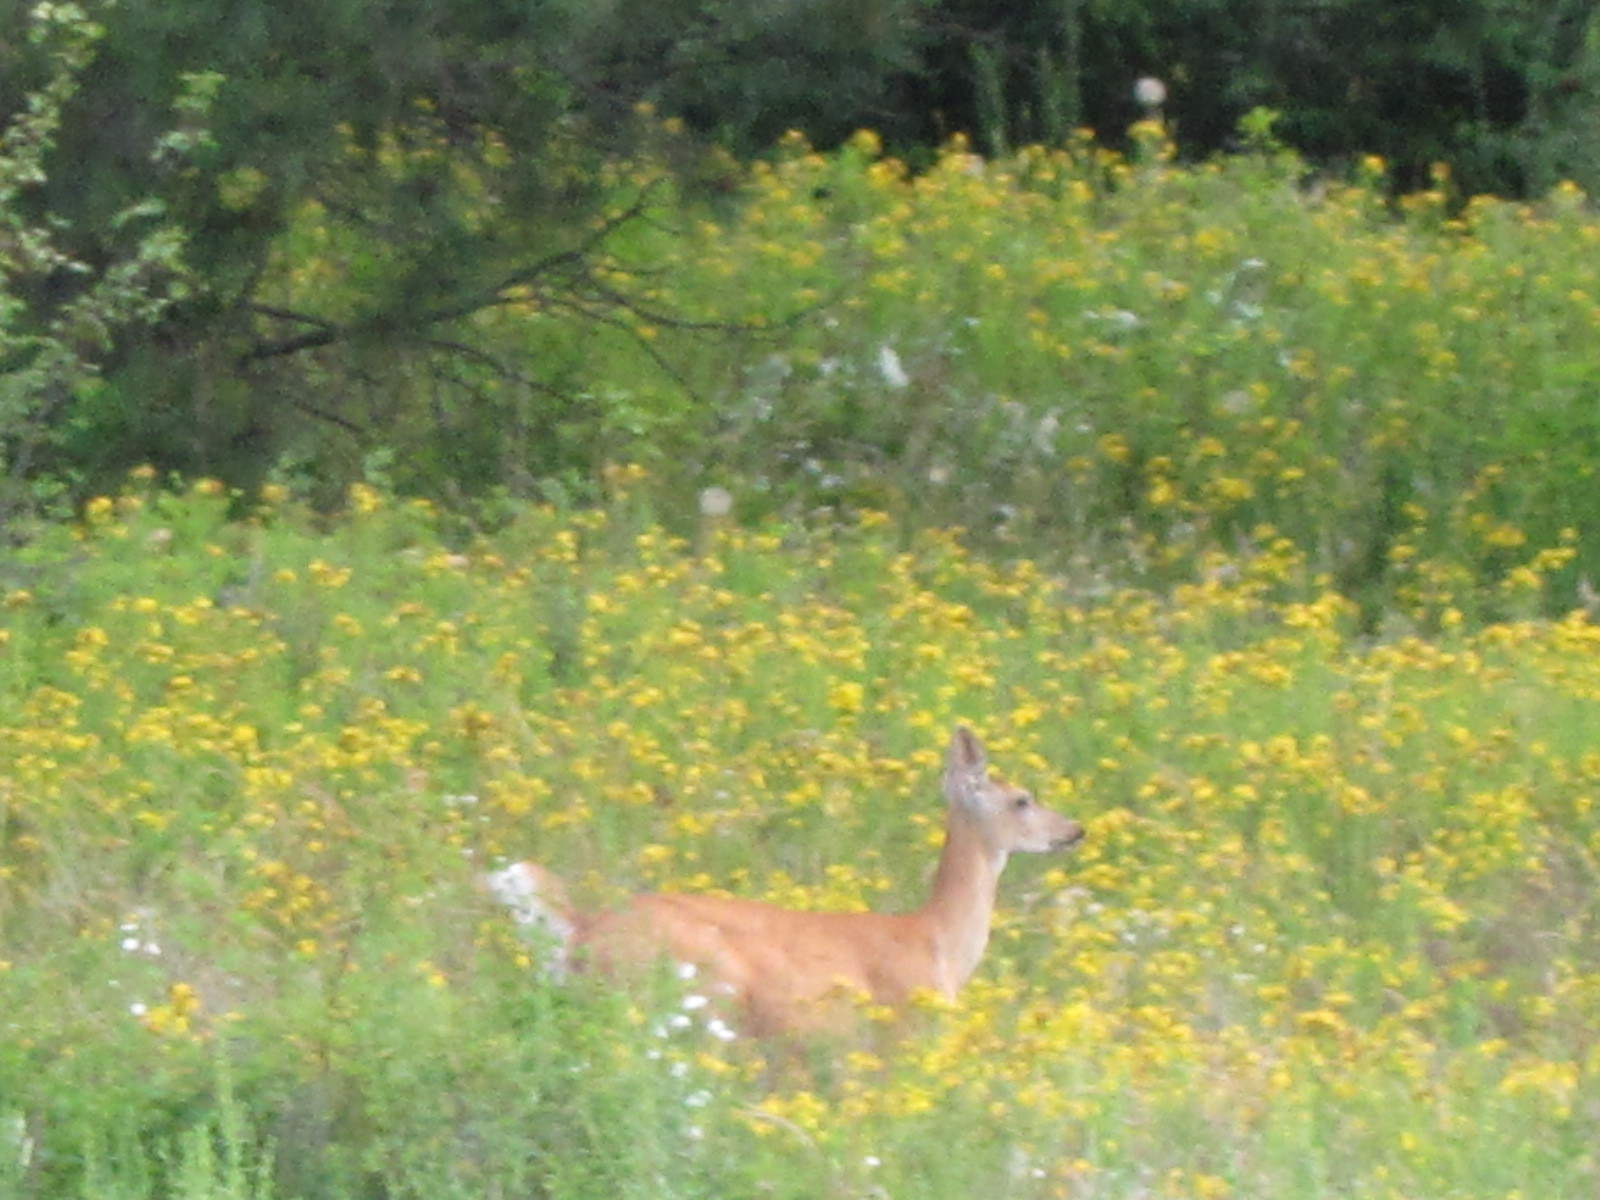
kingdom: Animalia
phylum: Chordata
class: Mammalia
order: Artiodactyla
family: Cervidae
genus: Odocoileus
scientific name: Odocoileus virginianus
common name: White-tailed deer
